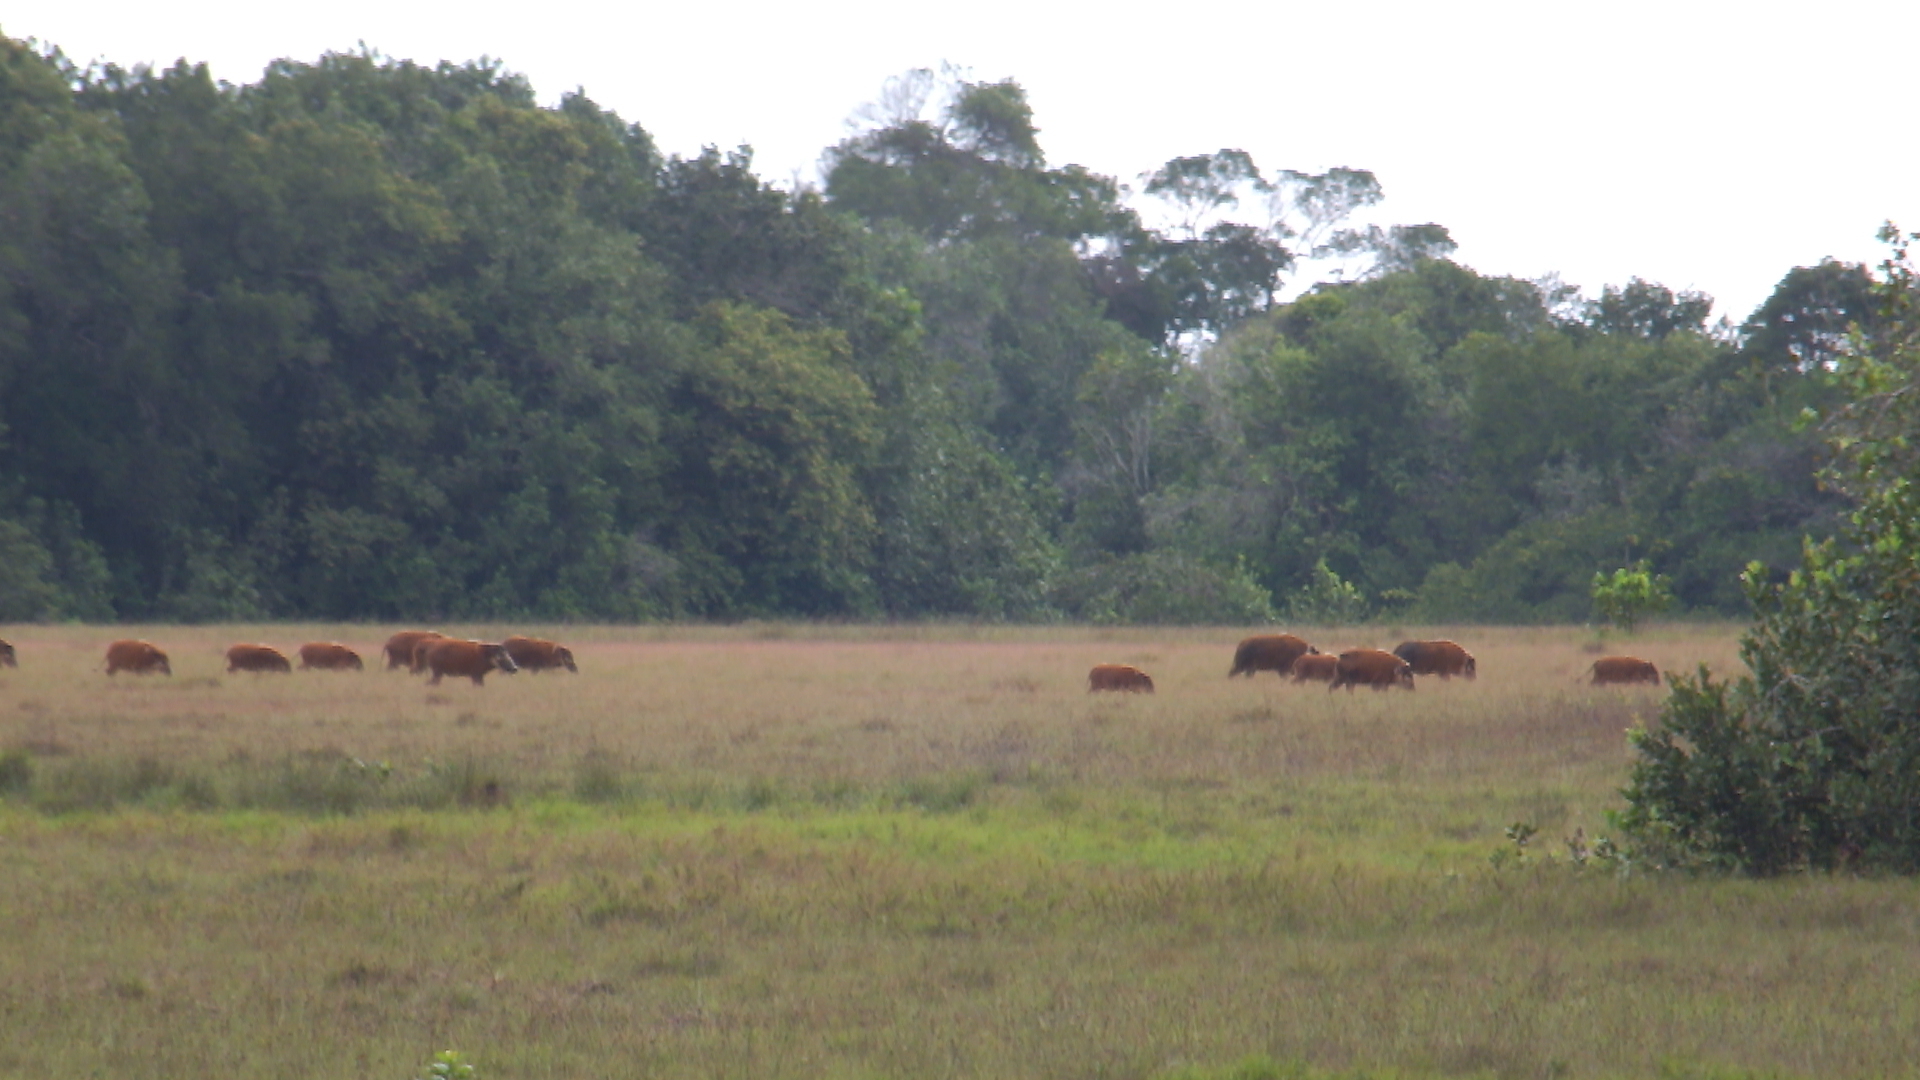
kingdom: Animalia
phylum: Chordata
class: Mammalia
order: Artiodactyla
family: Suidae
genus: Potamochoerus
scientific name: Potamochoerus porcus
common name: Red river hog
